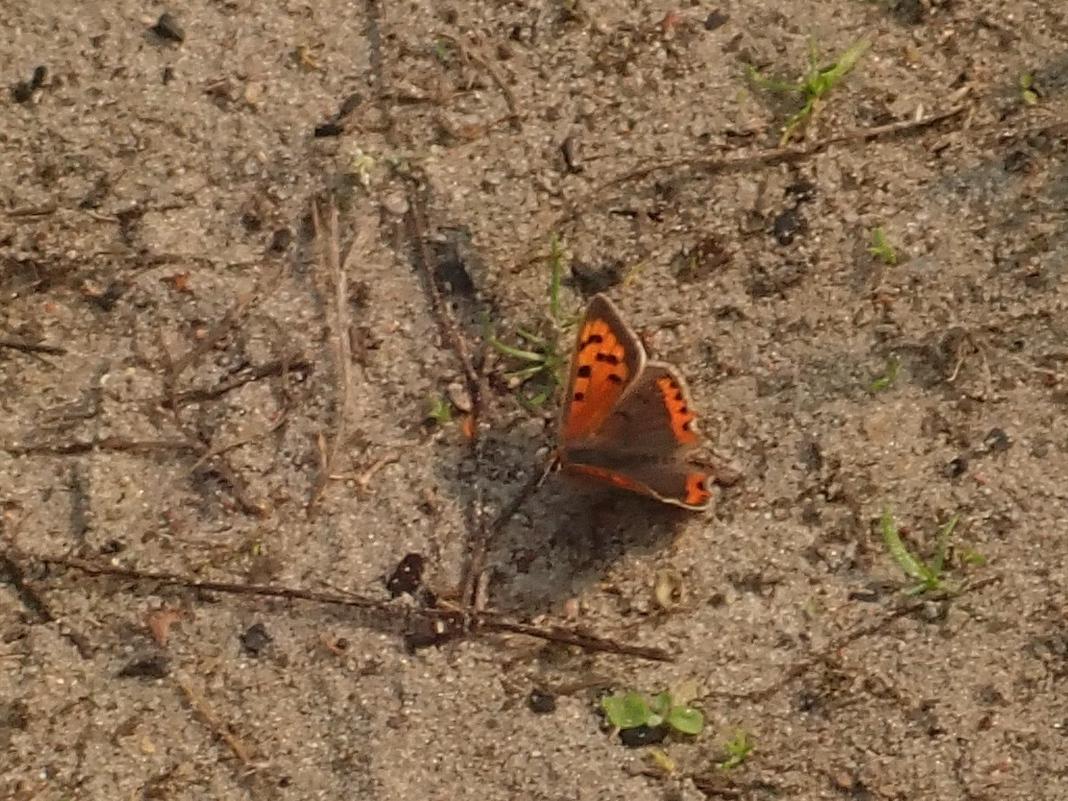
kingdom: Animalia
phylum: Arthropoda
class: Insecta
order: Lepidoptera
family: Lycaenidae
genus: Lycaena
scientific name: Lycaena phlaeas
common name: Small copper
